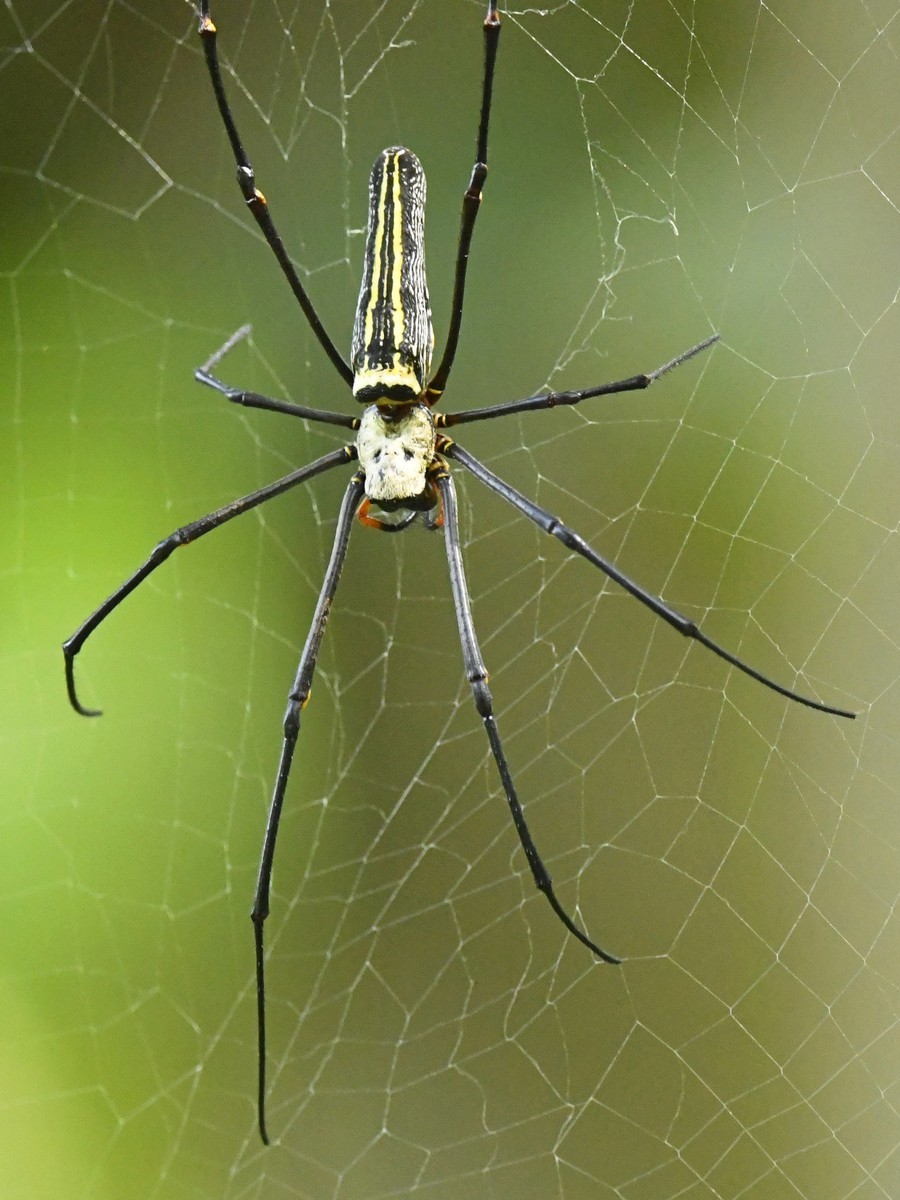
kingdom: Animalia
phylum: Arthropoda
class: Arachnida
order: Araneae
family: Araneidae
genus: Nephila
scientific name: Nephila pilipes
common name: Giant golden orb weaver
